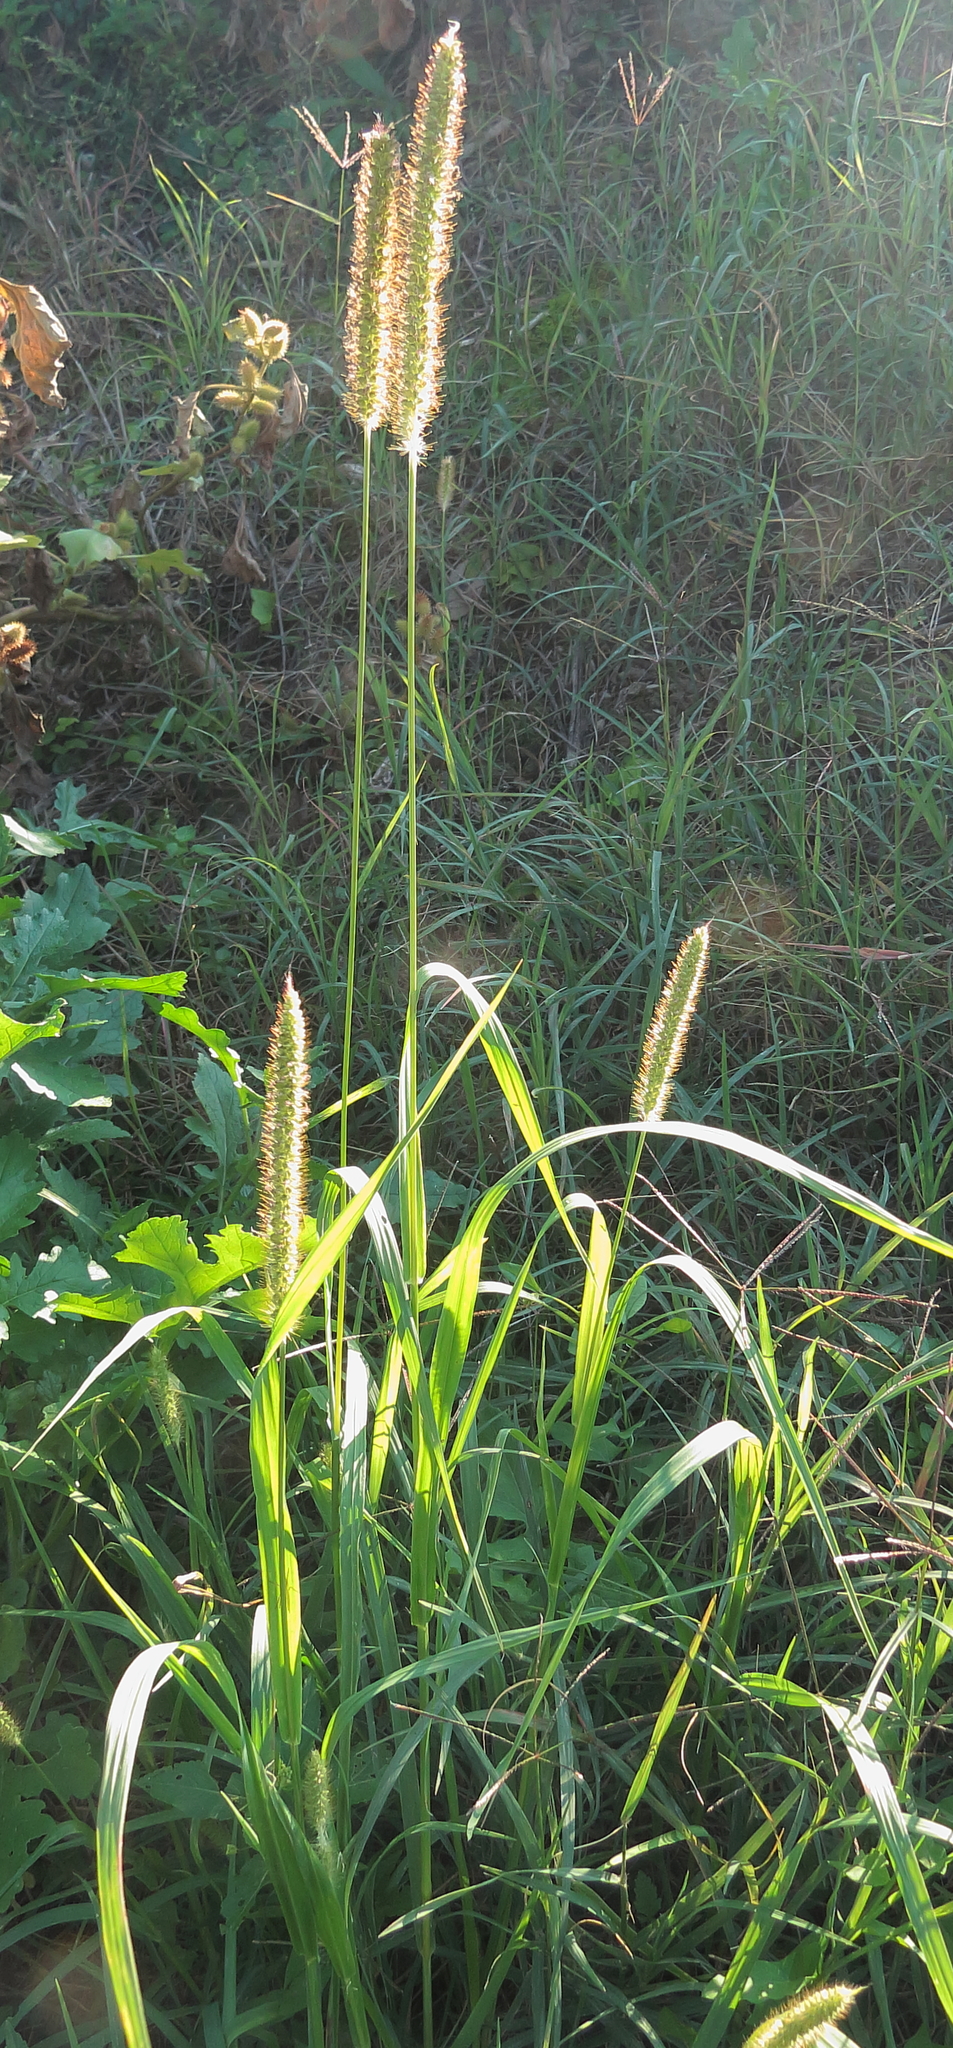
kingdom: Plantae
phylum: Tracheophyta
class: Liliopsida
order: Poales
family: Poaceae
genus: Setaria
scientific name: Setaria pumila
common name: Yellow bristle-grass
